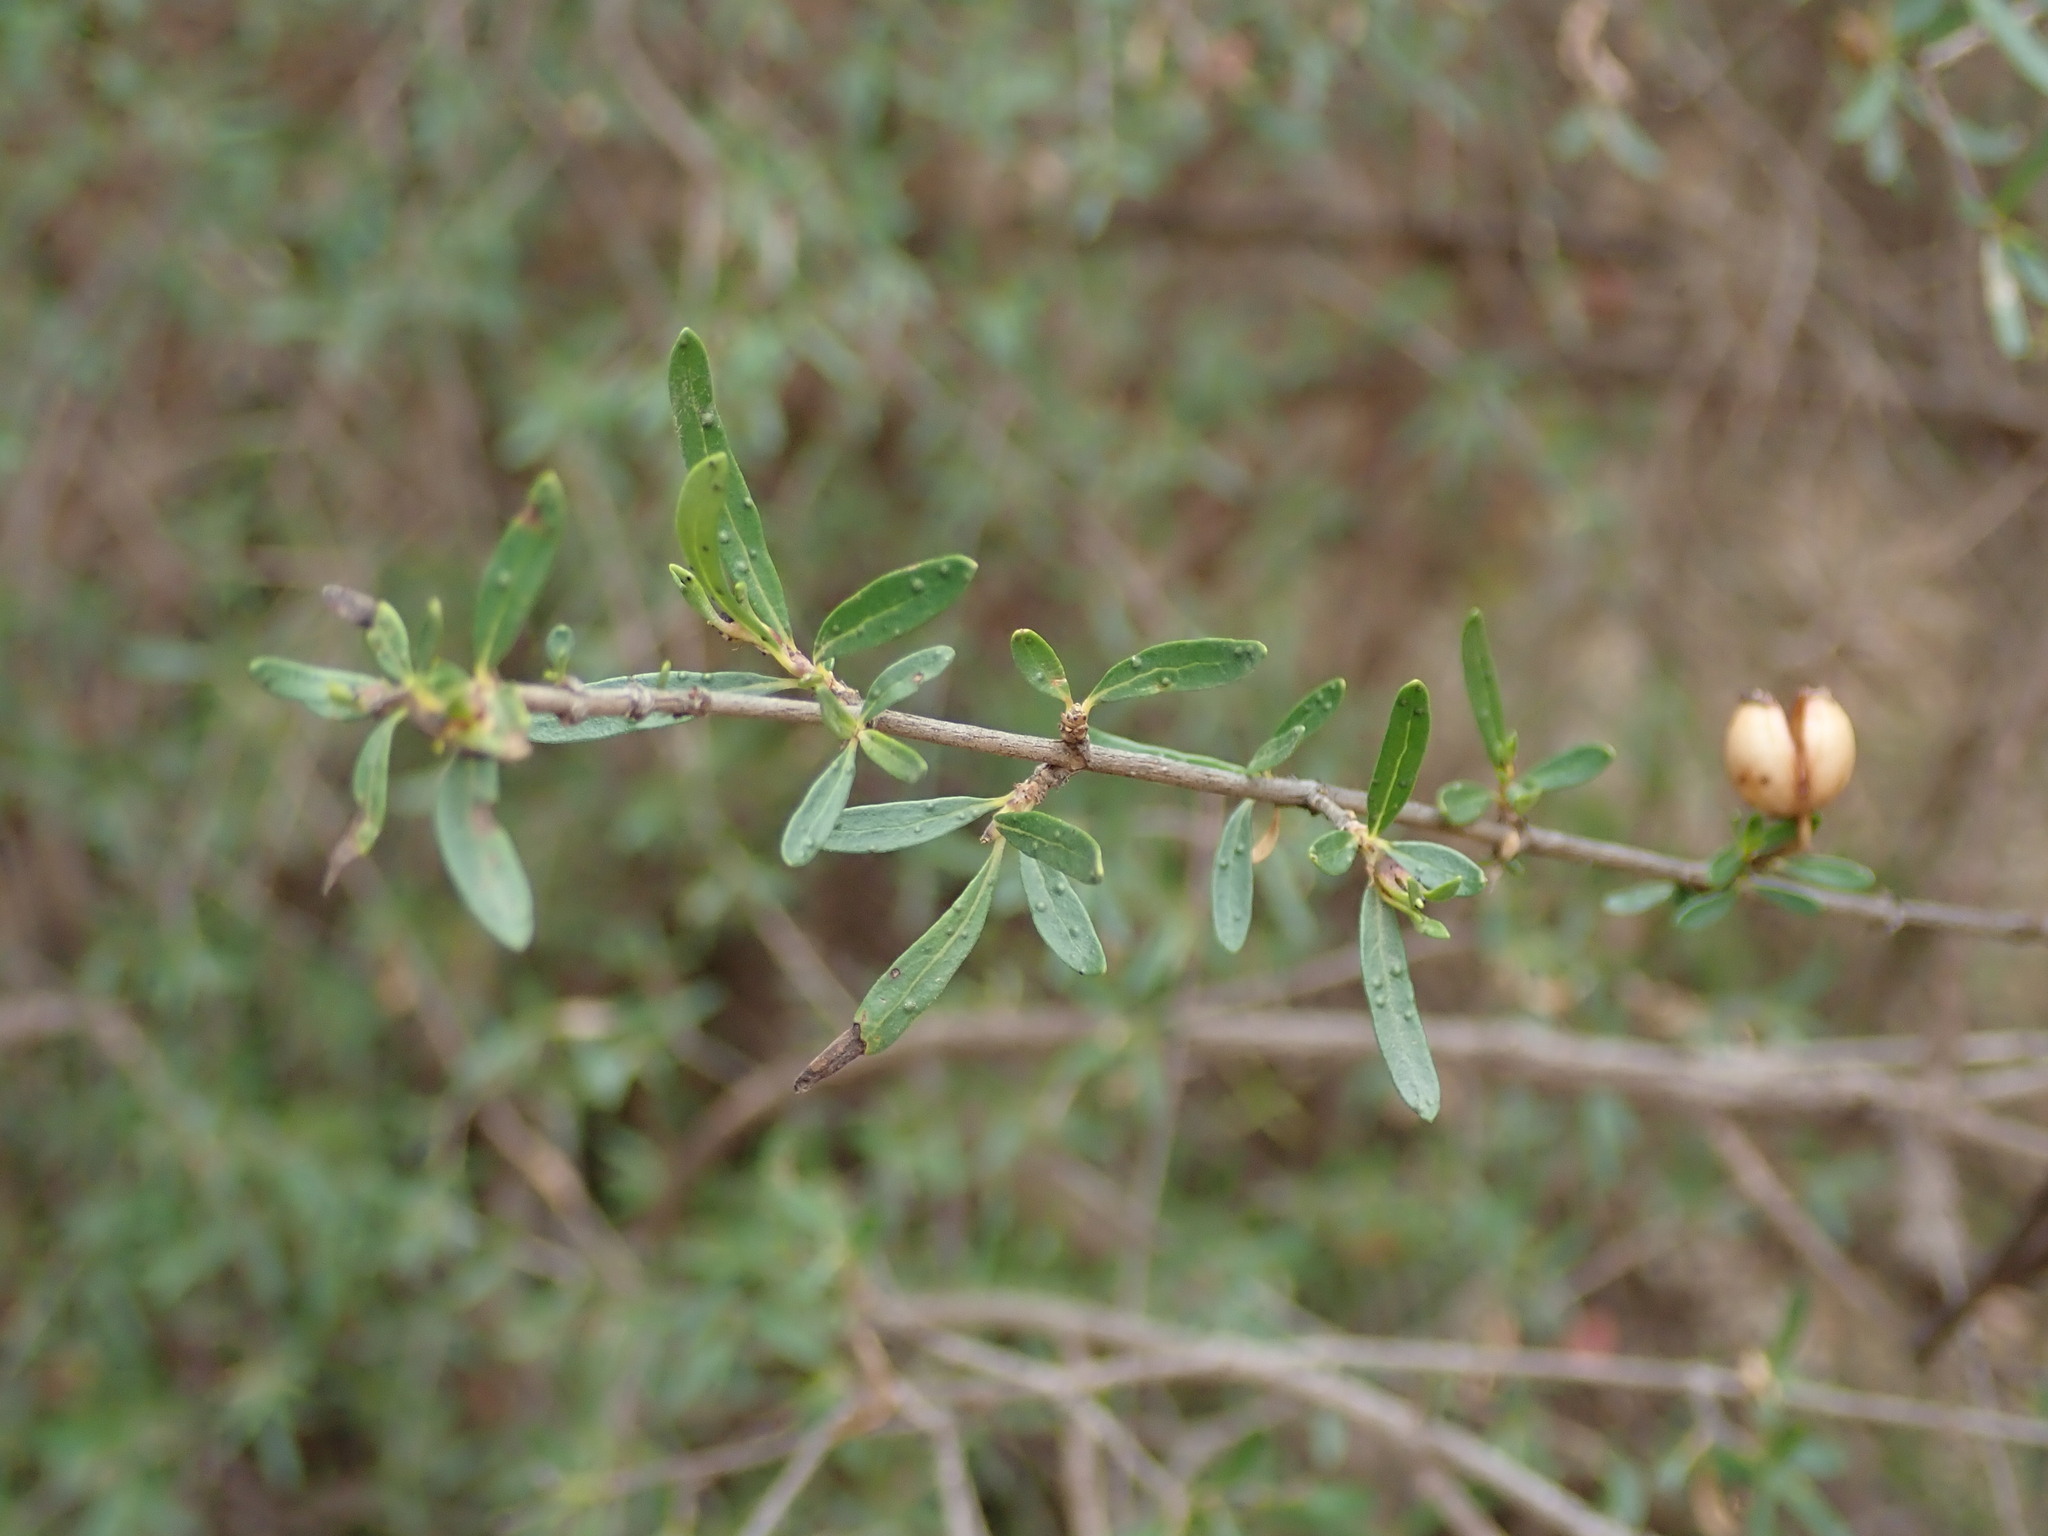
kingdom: Plantae
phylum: Tracheophyta
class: Magnoliopsida
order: Gentianales
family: Rubiaceae
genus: Heterophyllaea
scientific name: Heterophyllaea lycioides
